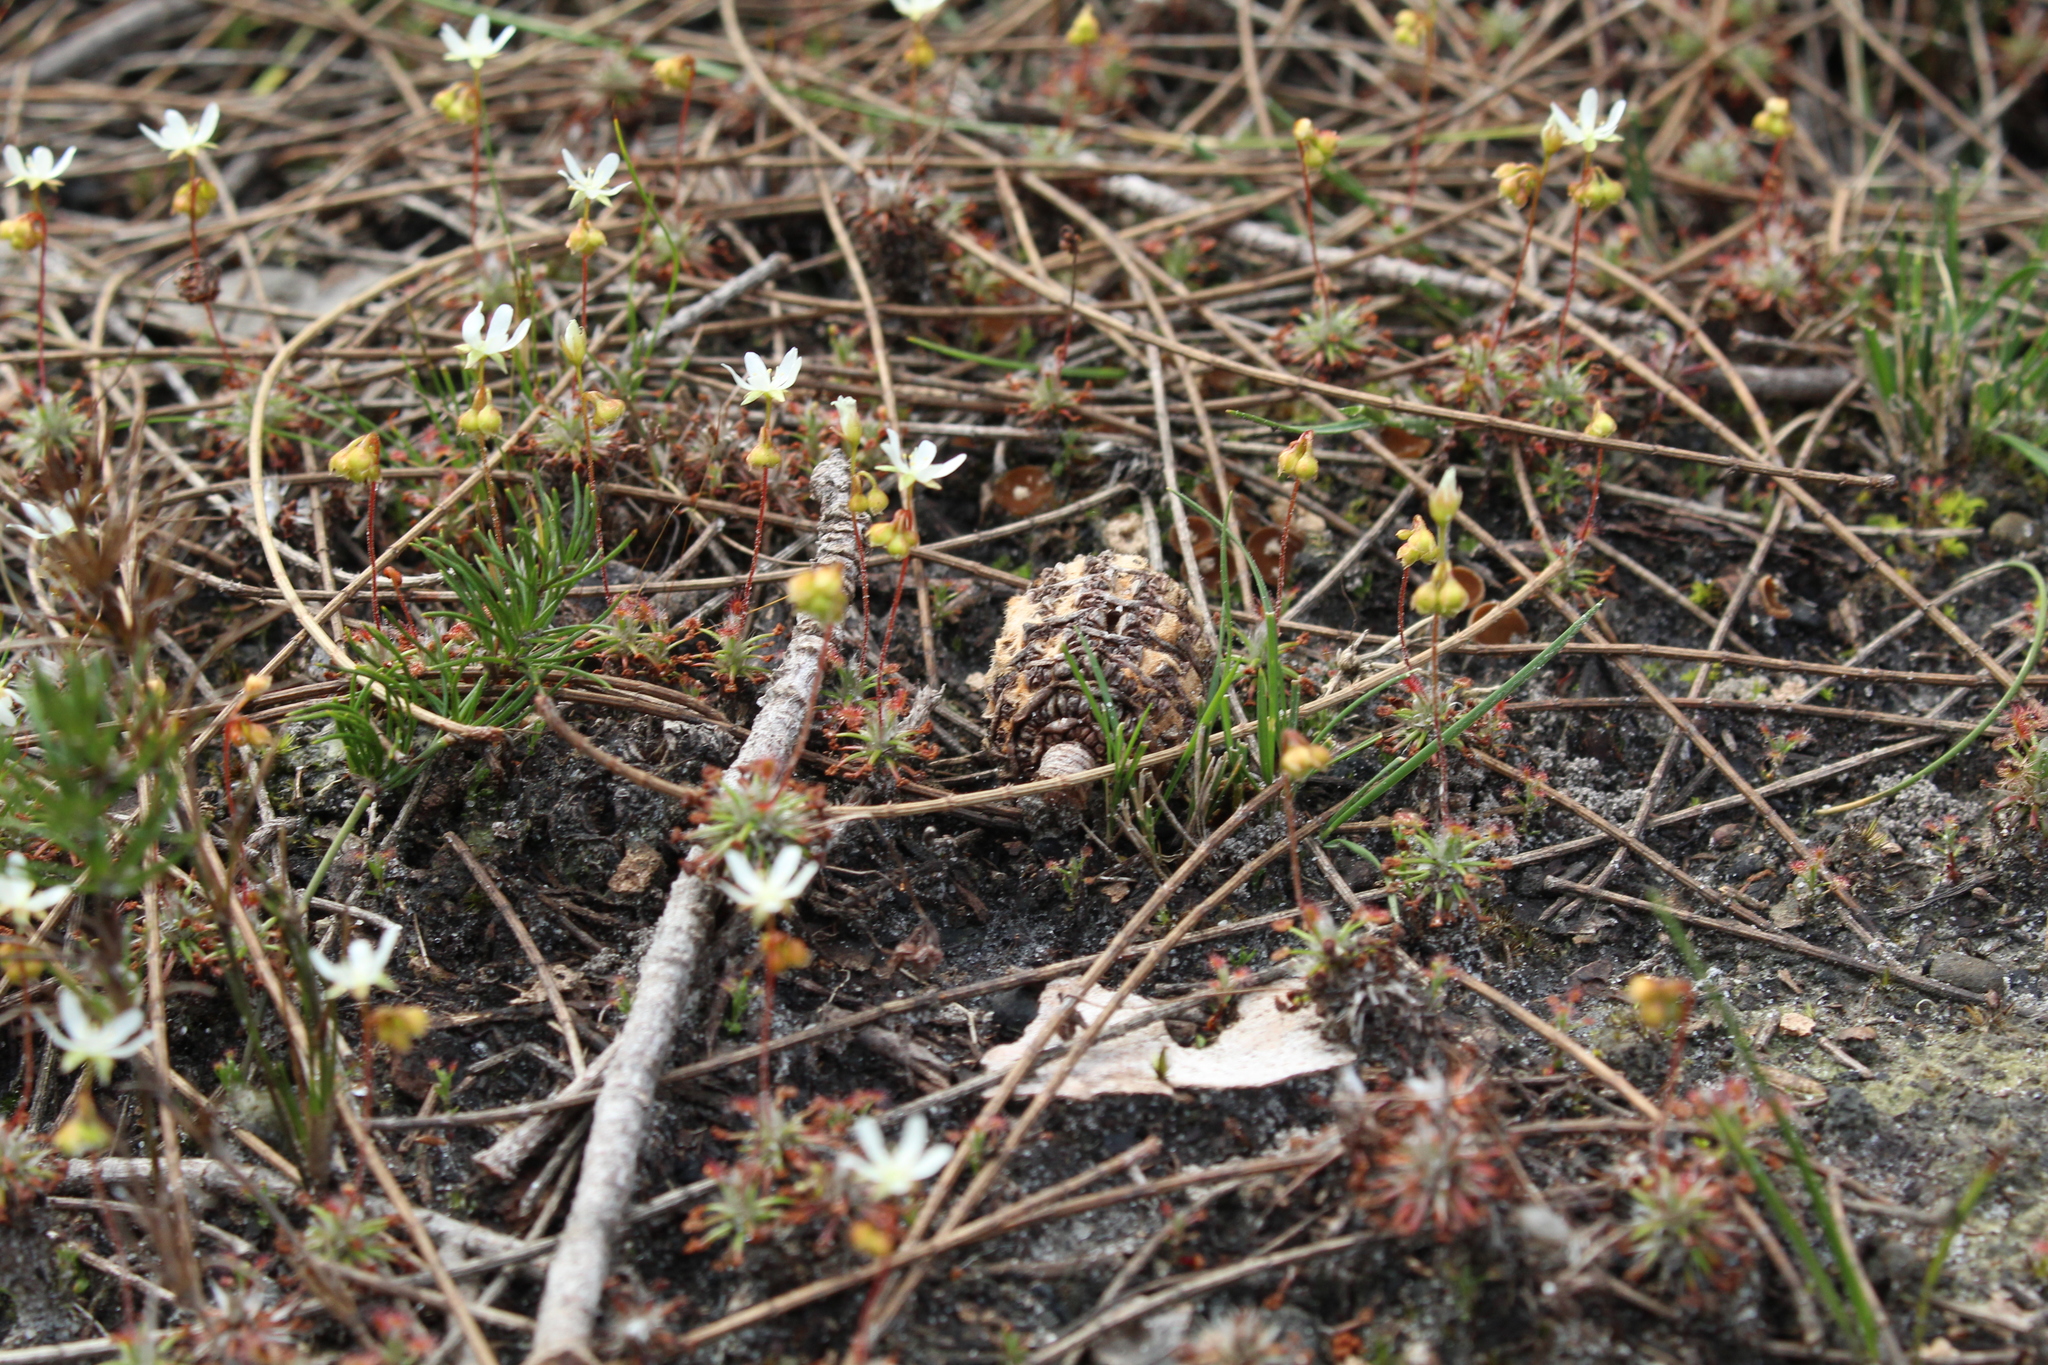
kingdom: Plantae
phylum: Tracheophyta
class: Magnoliopsida
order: Caryophyllales
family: Droseraceae
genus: Drosera
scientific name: Drosera verrucata
